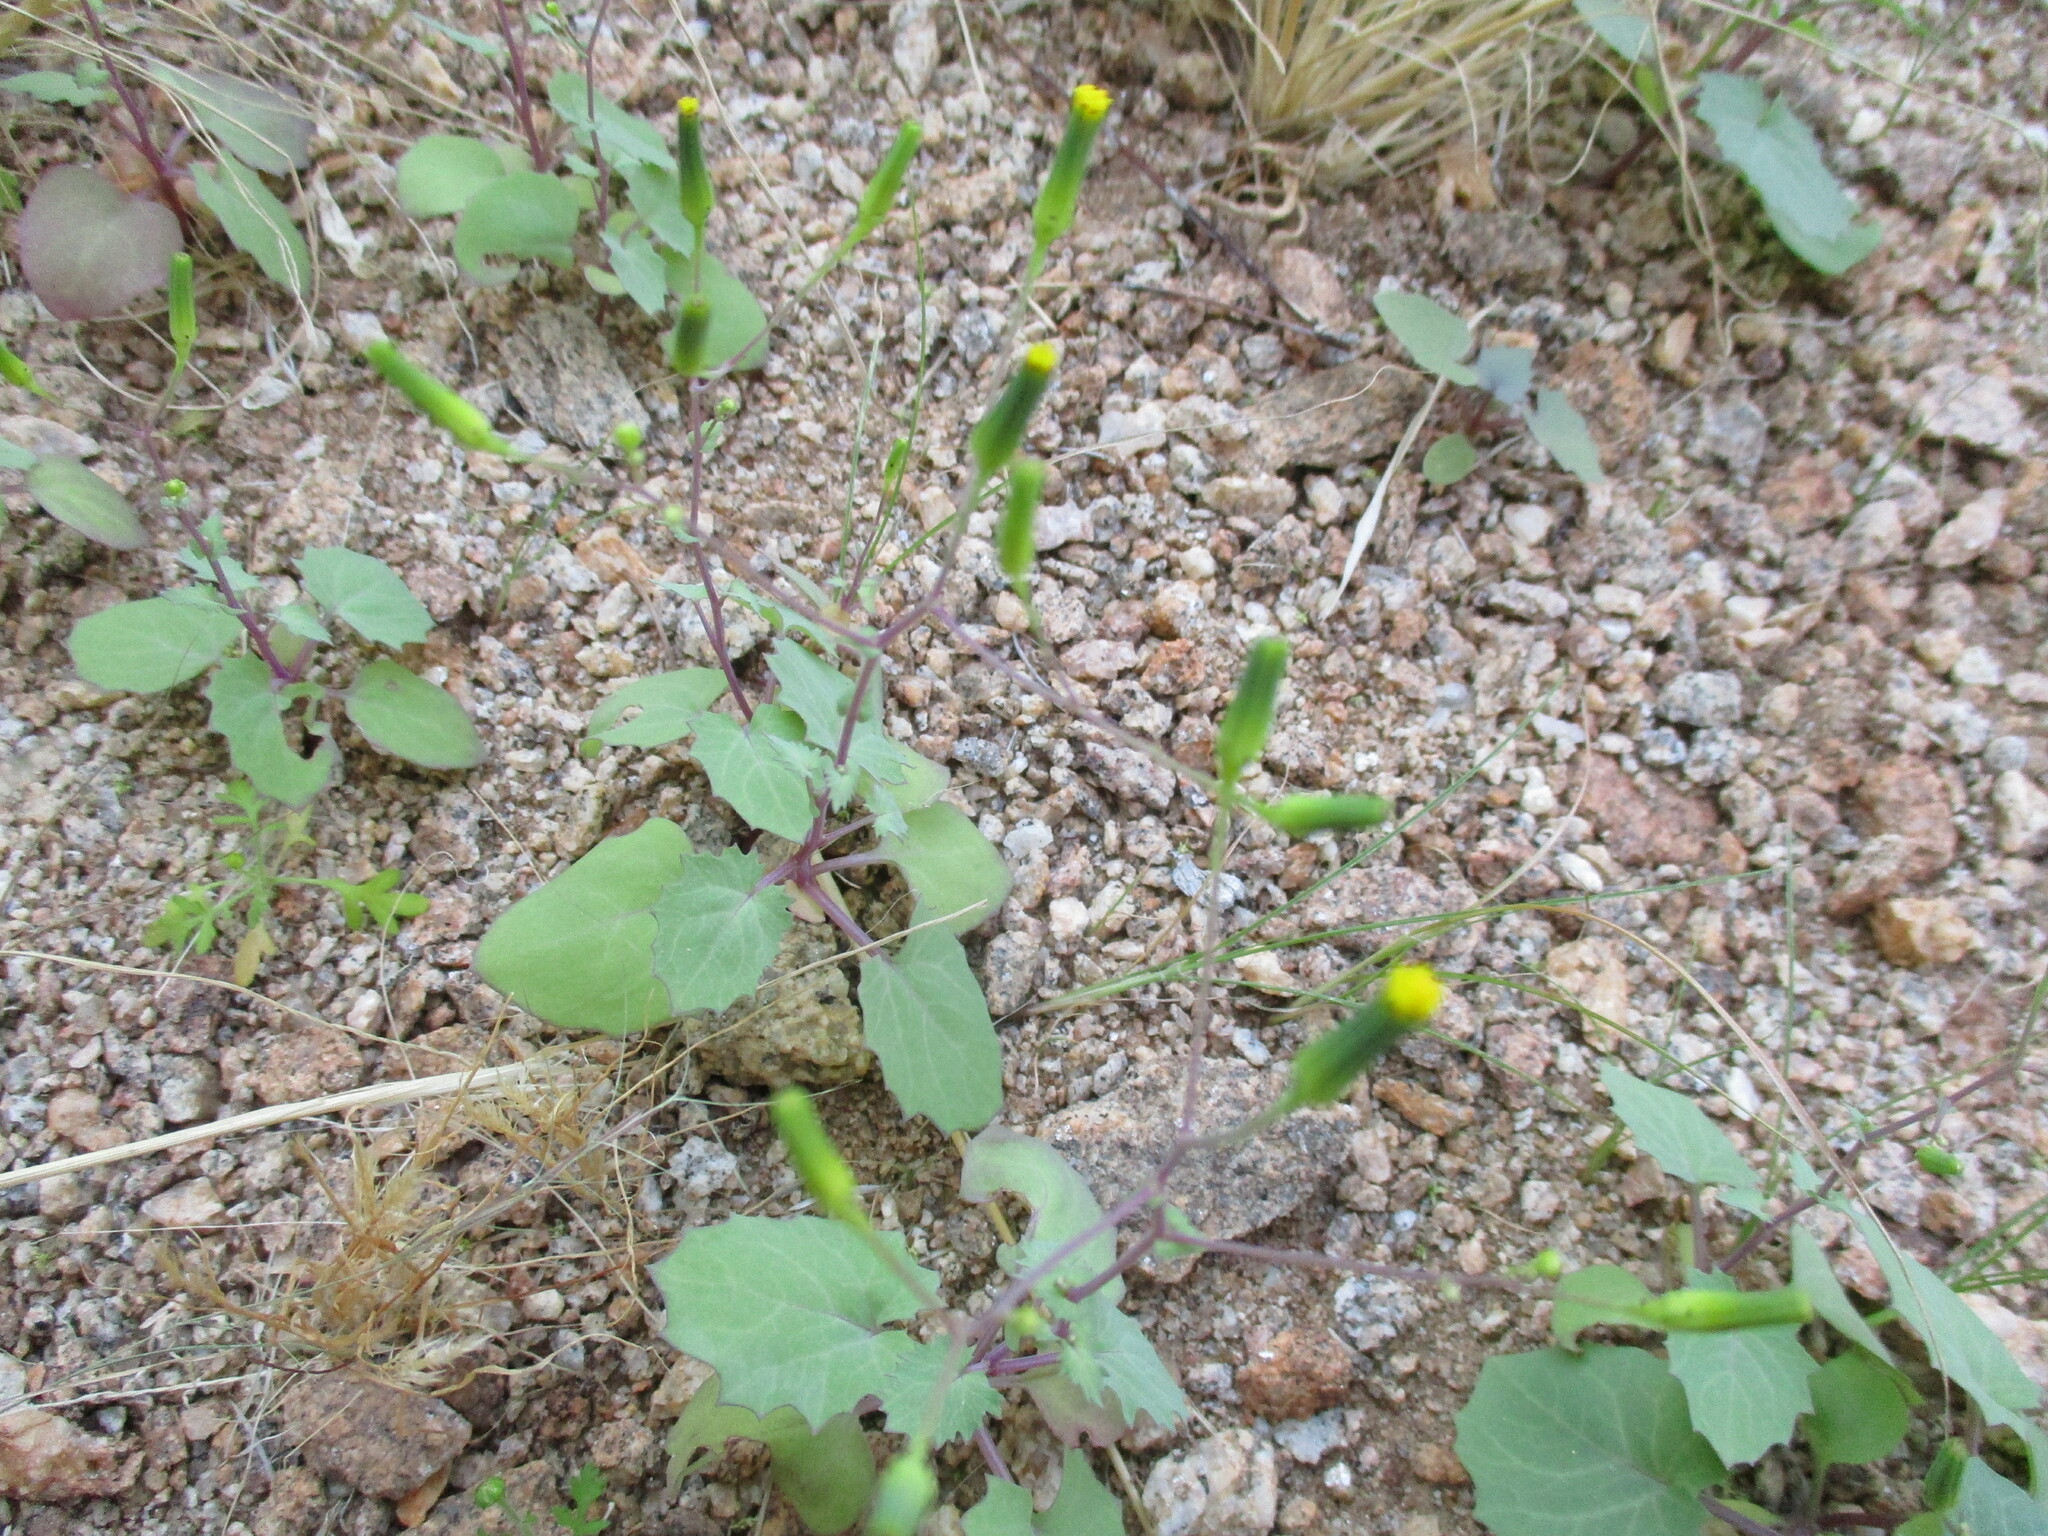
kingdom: Plantae
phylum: Tracheophyta
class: Magnoliopsida
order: Asterales
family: Asteraceae
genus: Senecio
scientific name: Senecio flavus
